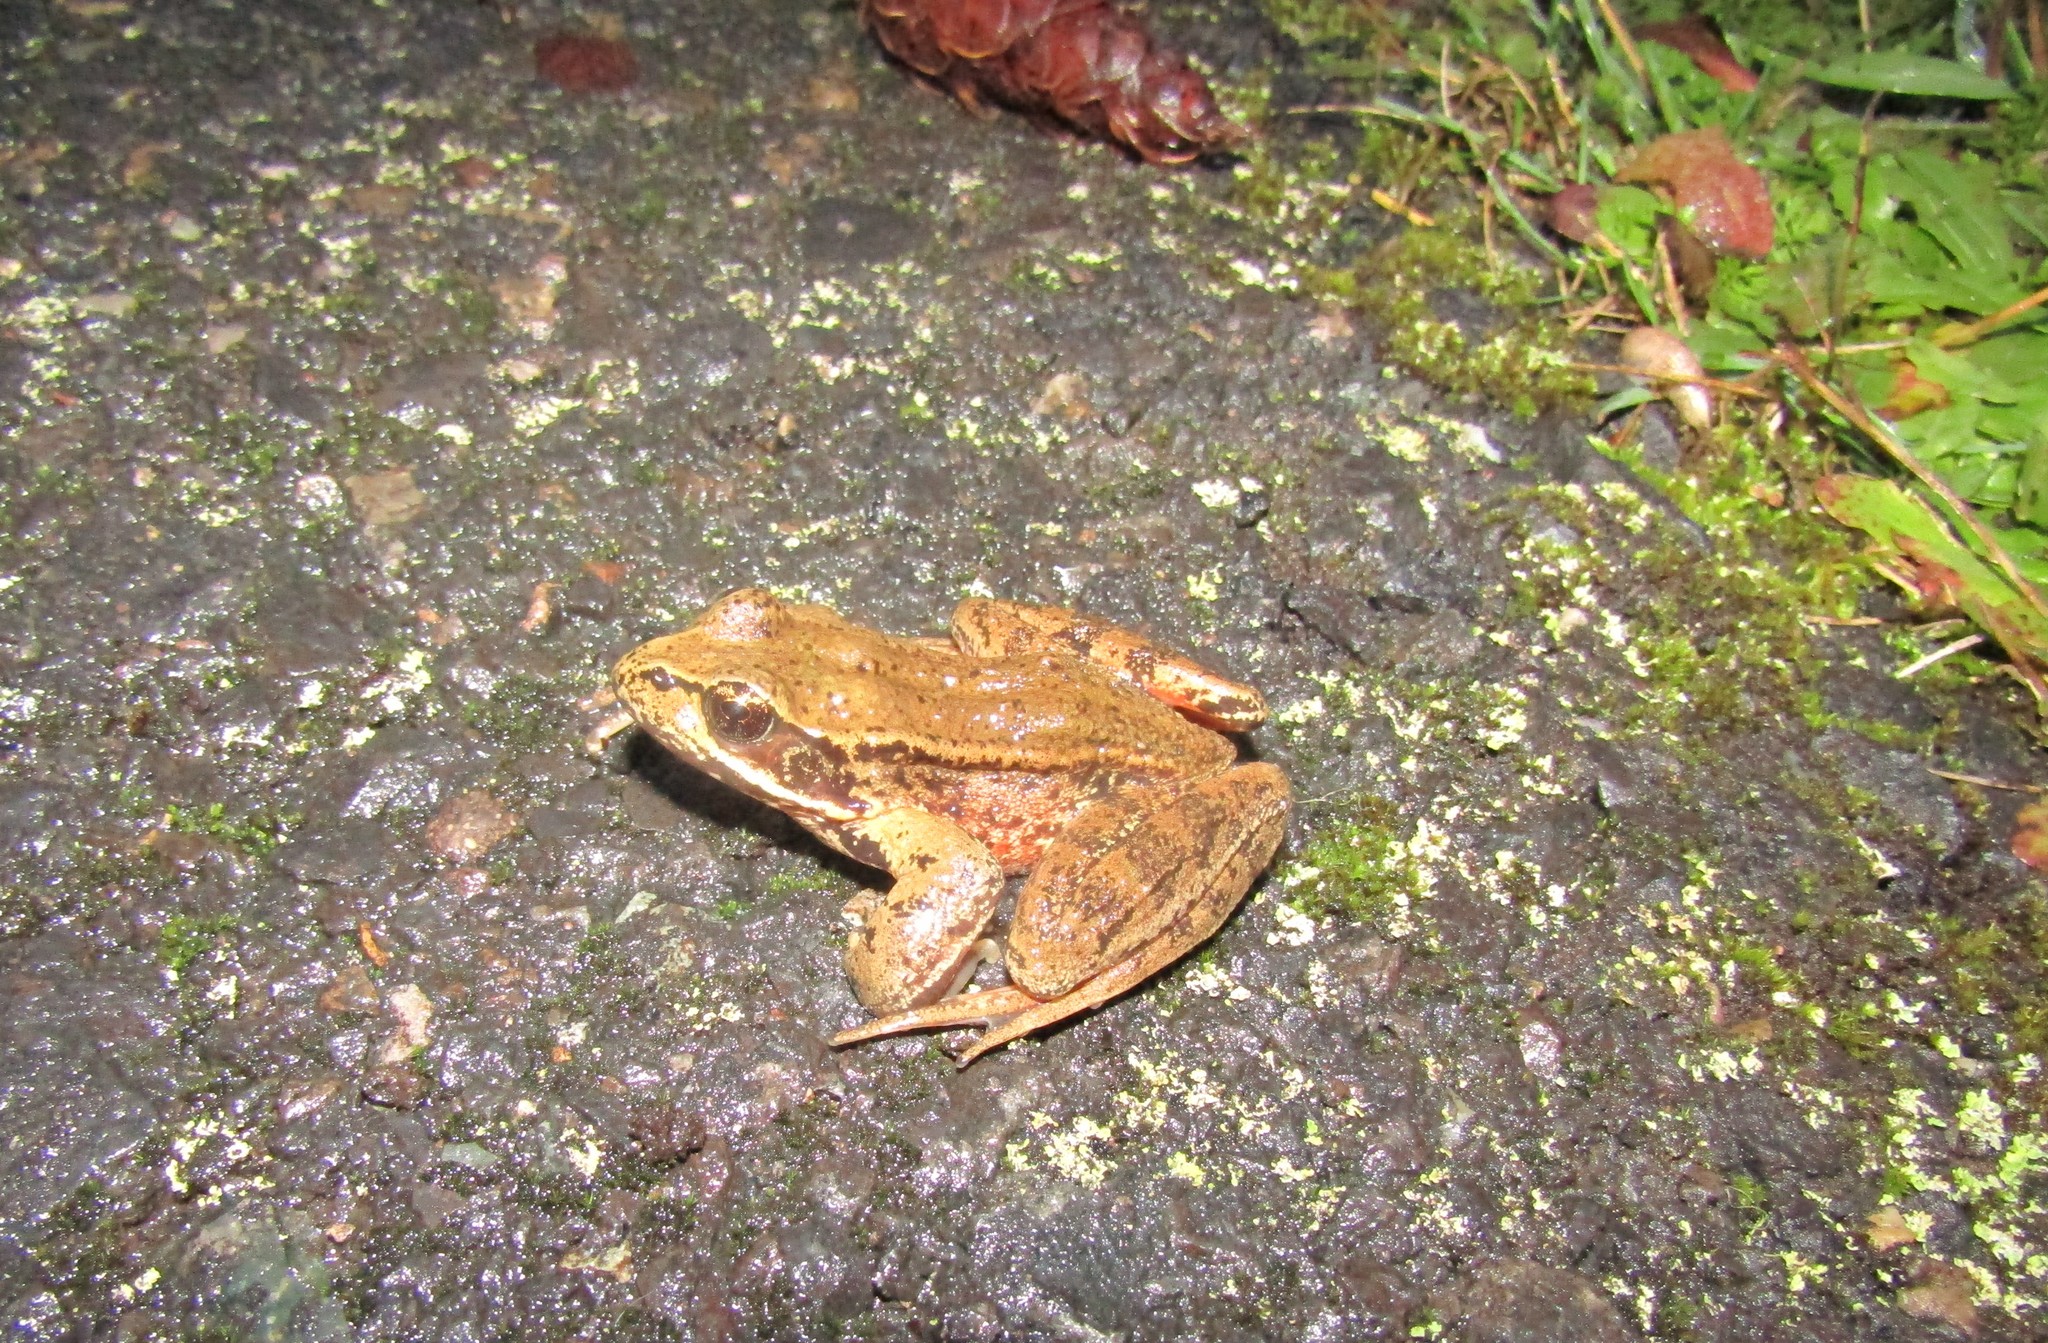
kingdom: Animalia
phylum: Chordata
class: Amphibia
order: Anura
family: Ranidae
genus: Rana
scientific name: Rana aurora
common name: Red-legged frog
